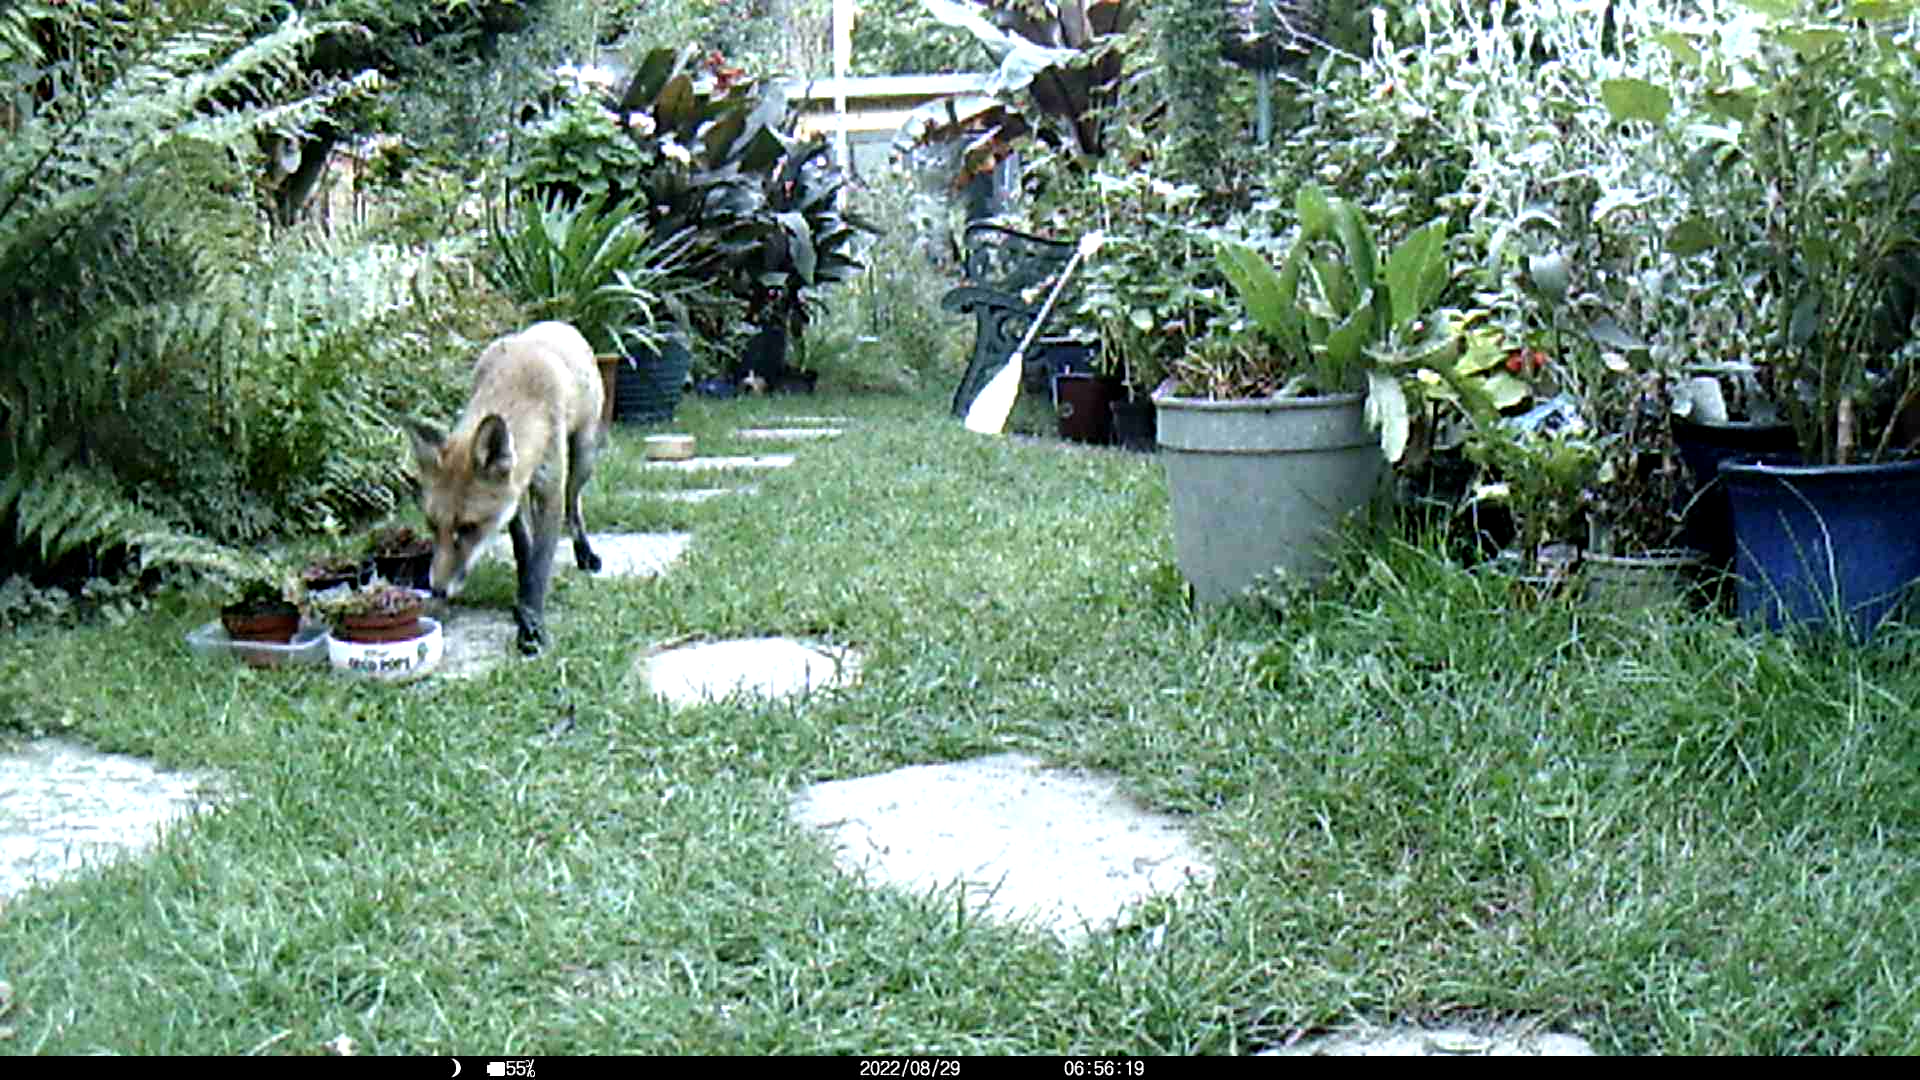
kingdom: Animalia
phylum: Chordata
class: Mammalia
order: Carnivora
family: Canidae
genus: Vulpes
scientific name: Vulpes vulpes
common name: Red fox
